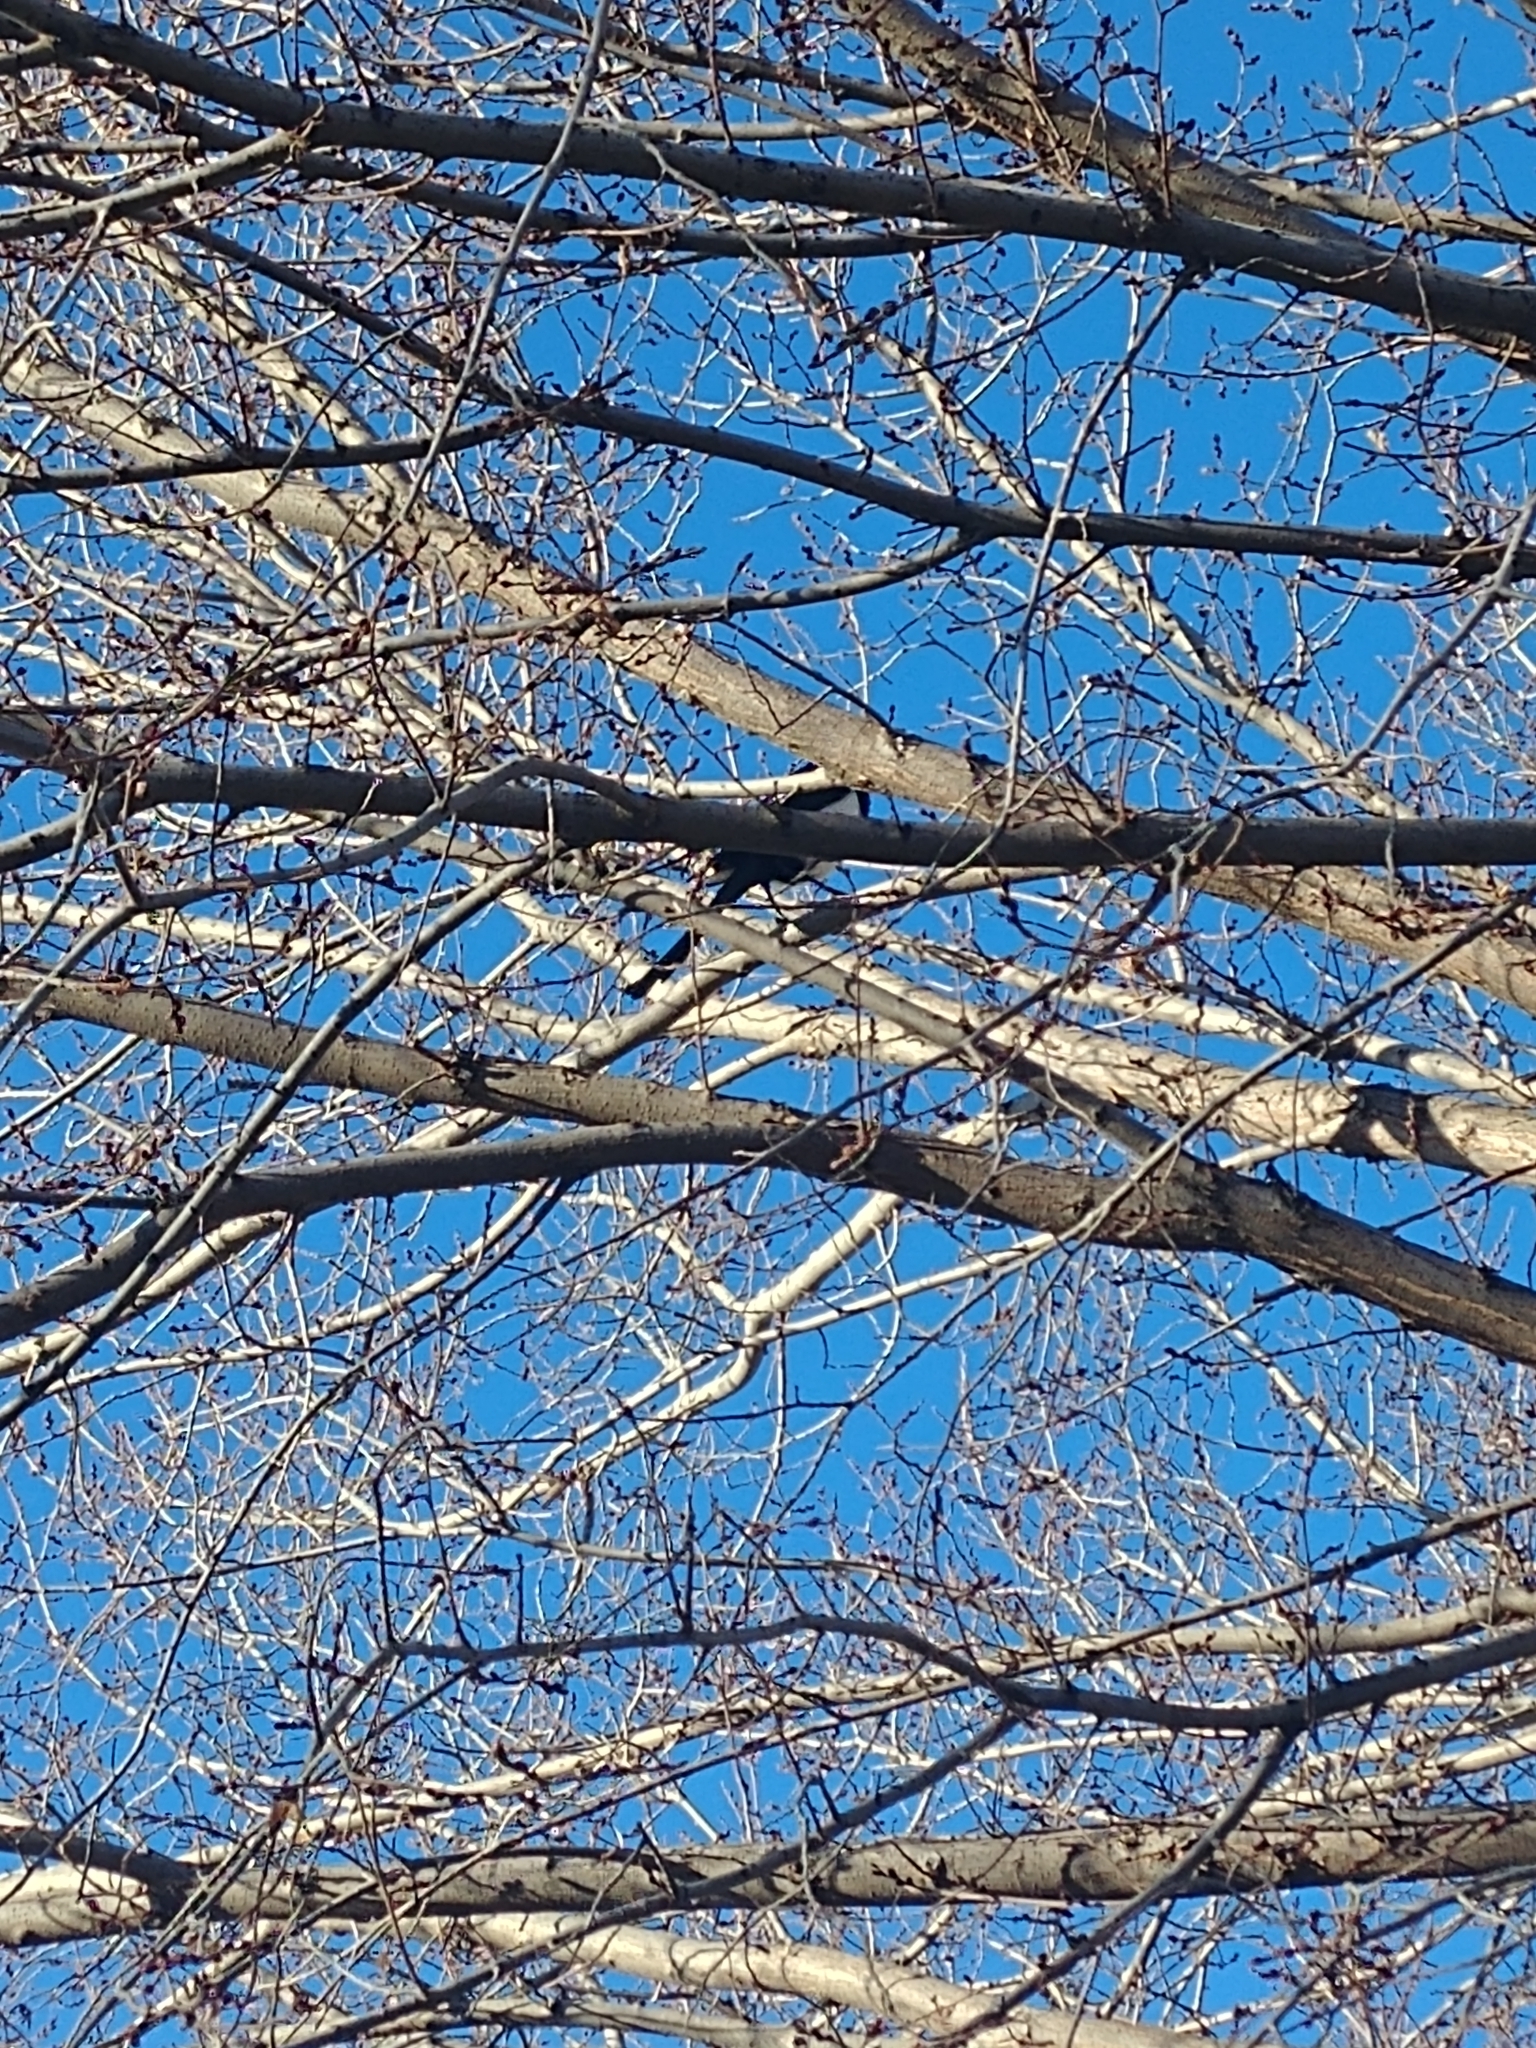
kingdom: Animalia
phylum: Chordata
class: Aves
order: Passeriformes
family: Corvidae
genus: Pica
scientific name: Pica hudsonia
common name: Black-billed magpie
